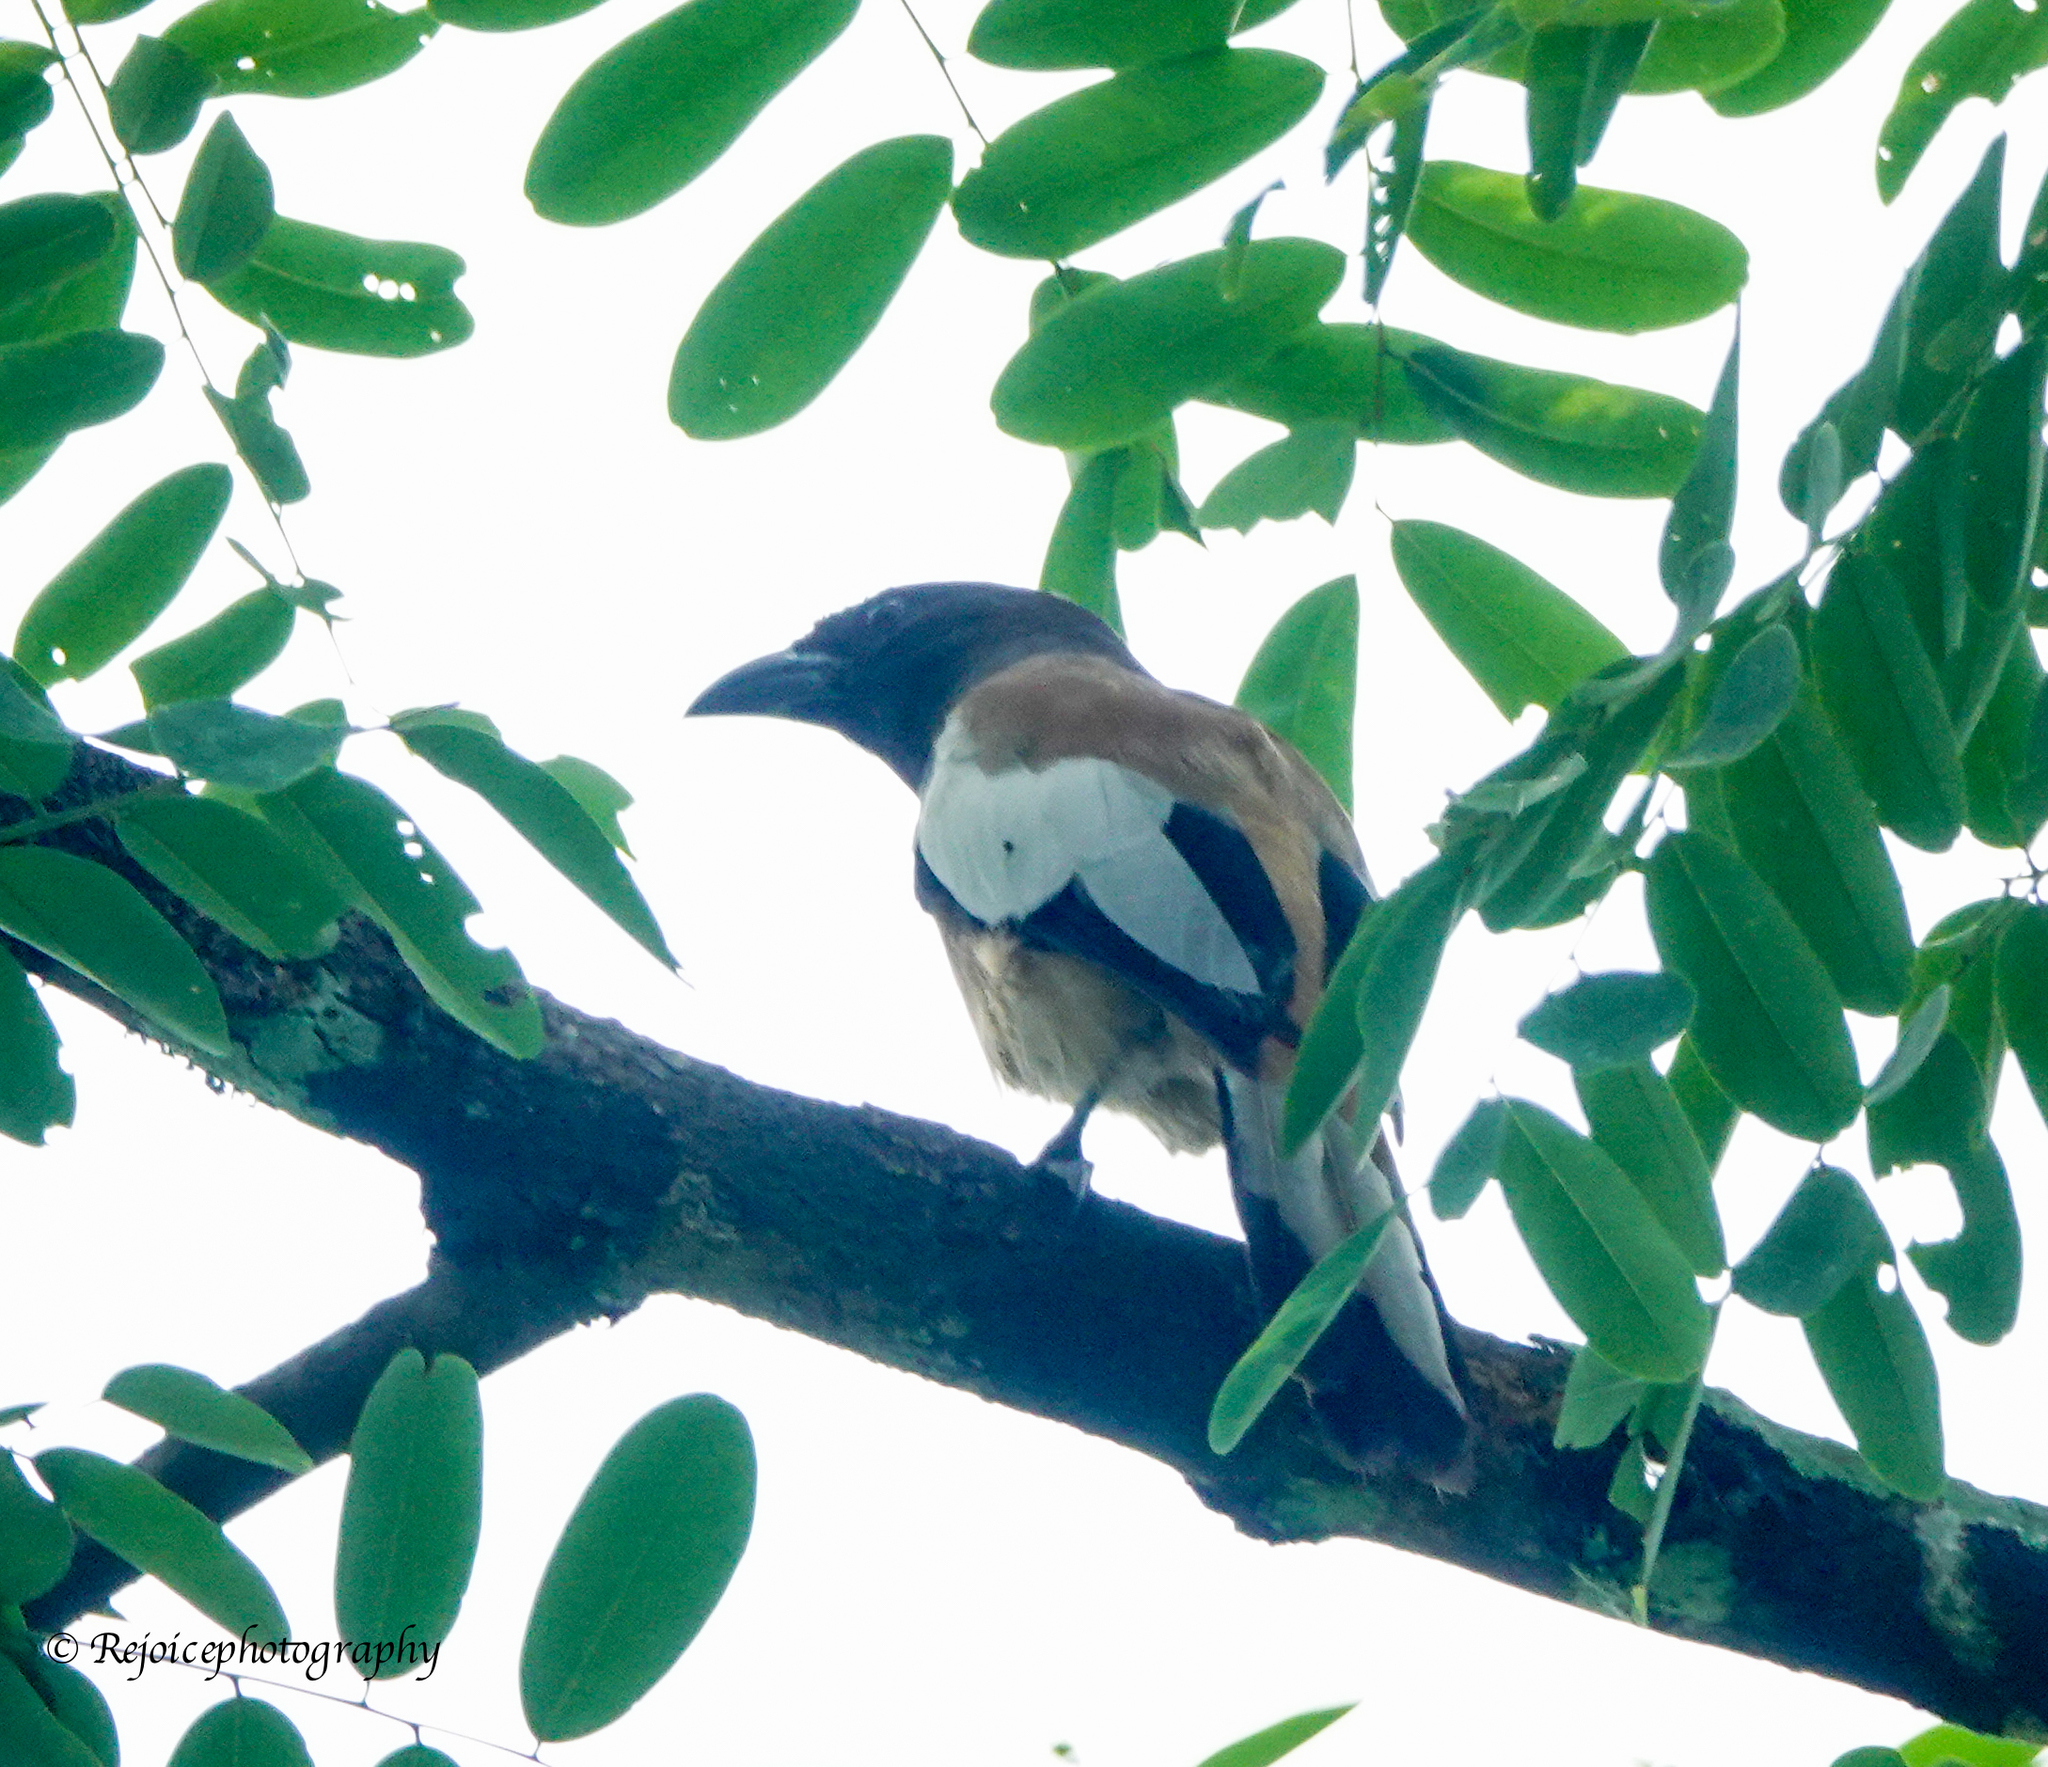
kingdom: Animalia
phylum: Chordata
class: Aves
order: Passeriformes
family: Corvidae
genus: Dendrocitta
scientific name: Dendrocitta vagabunda
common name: Rufous treepie
